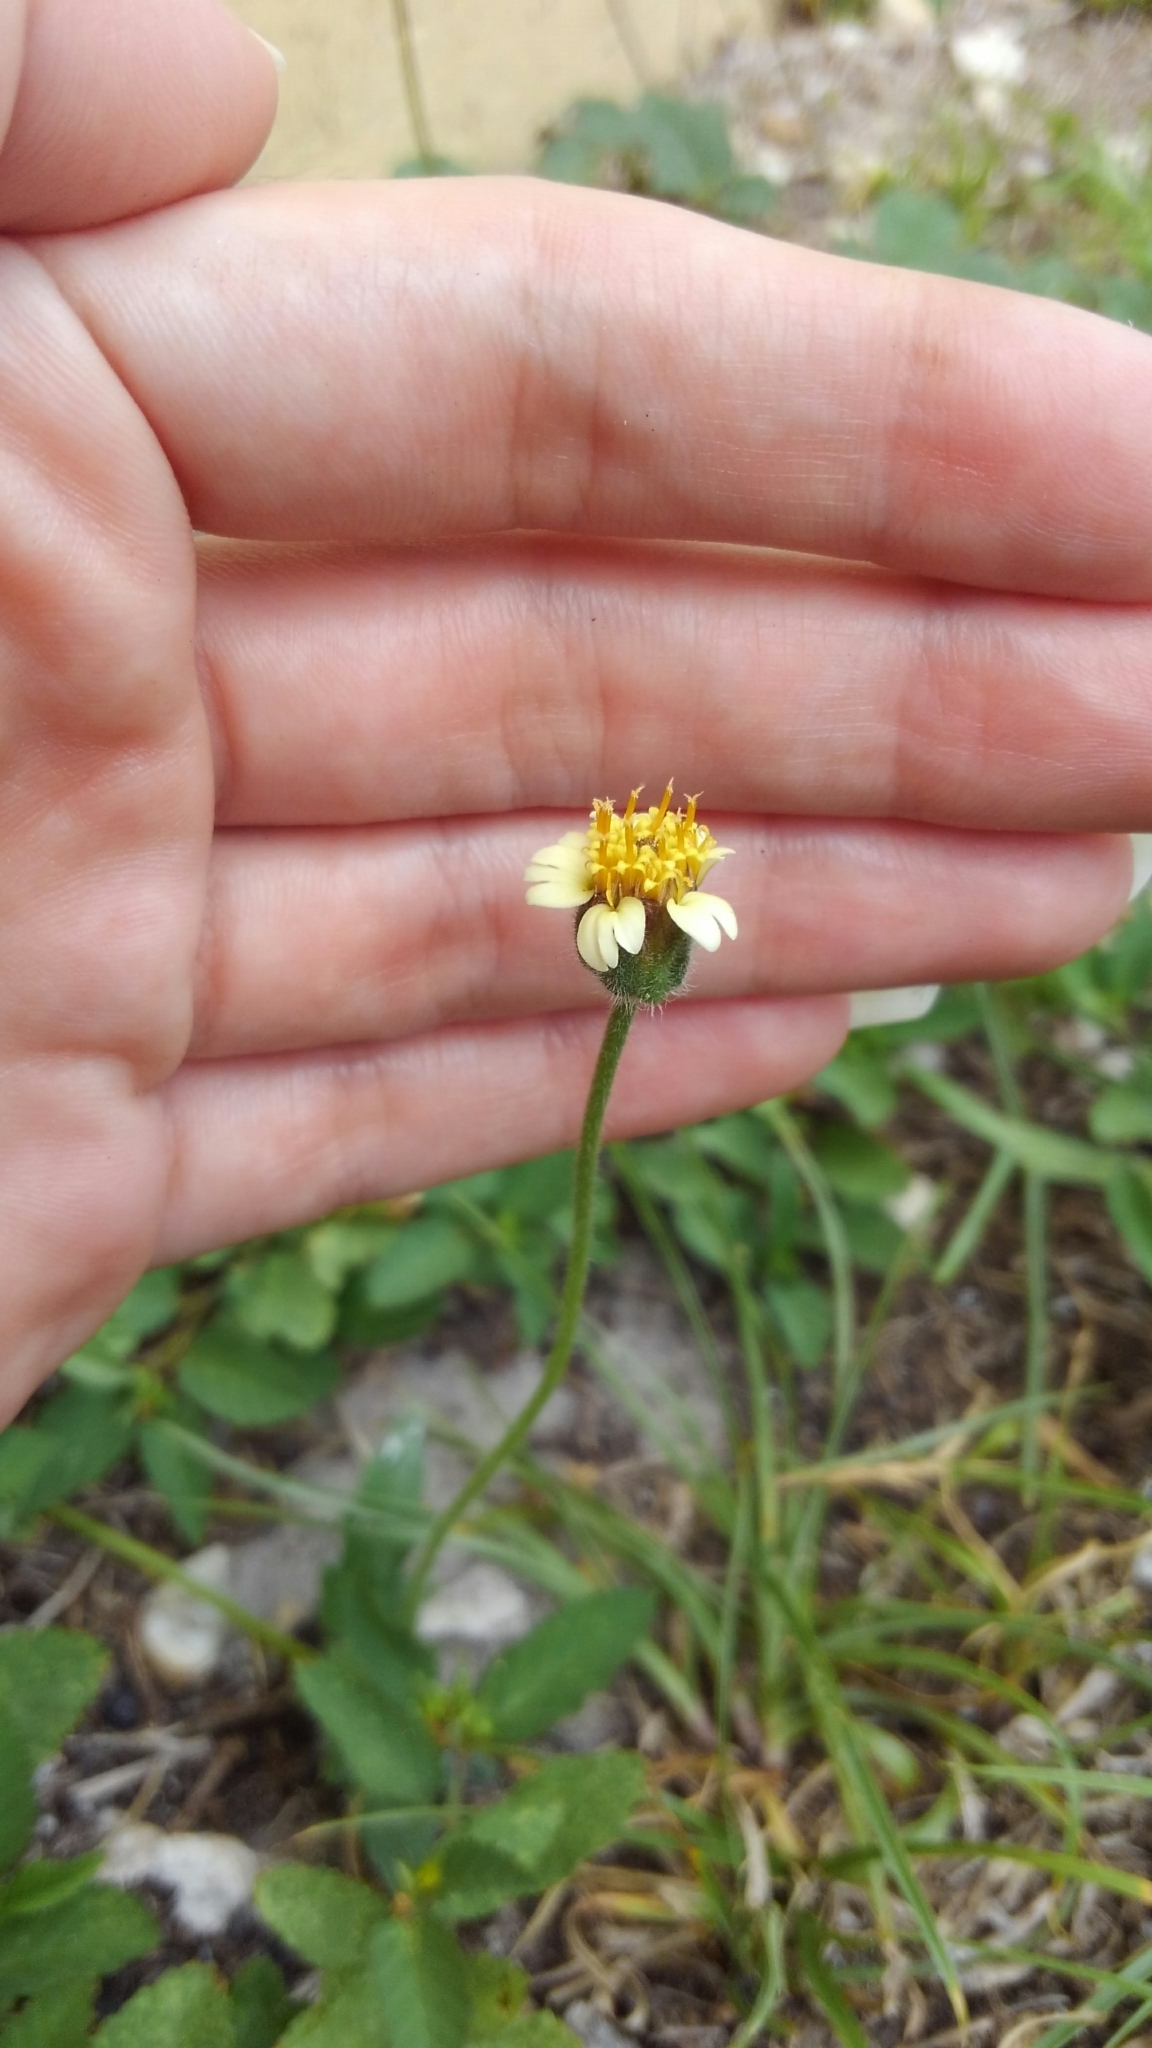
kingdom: Plantae
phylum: Tracheophyta
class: Magnoliopsida
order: Asterales
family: Asteraceae
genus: Tridax
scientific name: Tridax procumbens
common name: Coatbuttons
